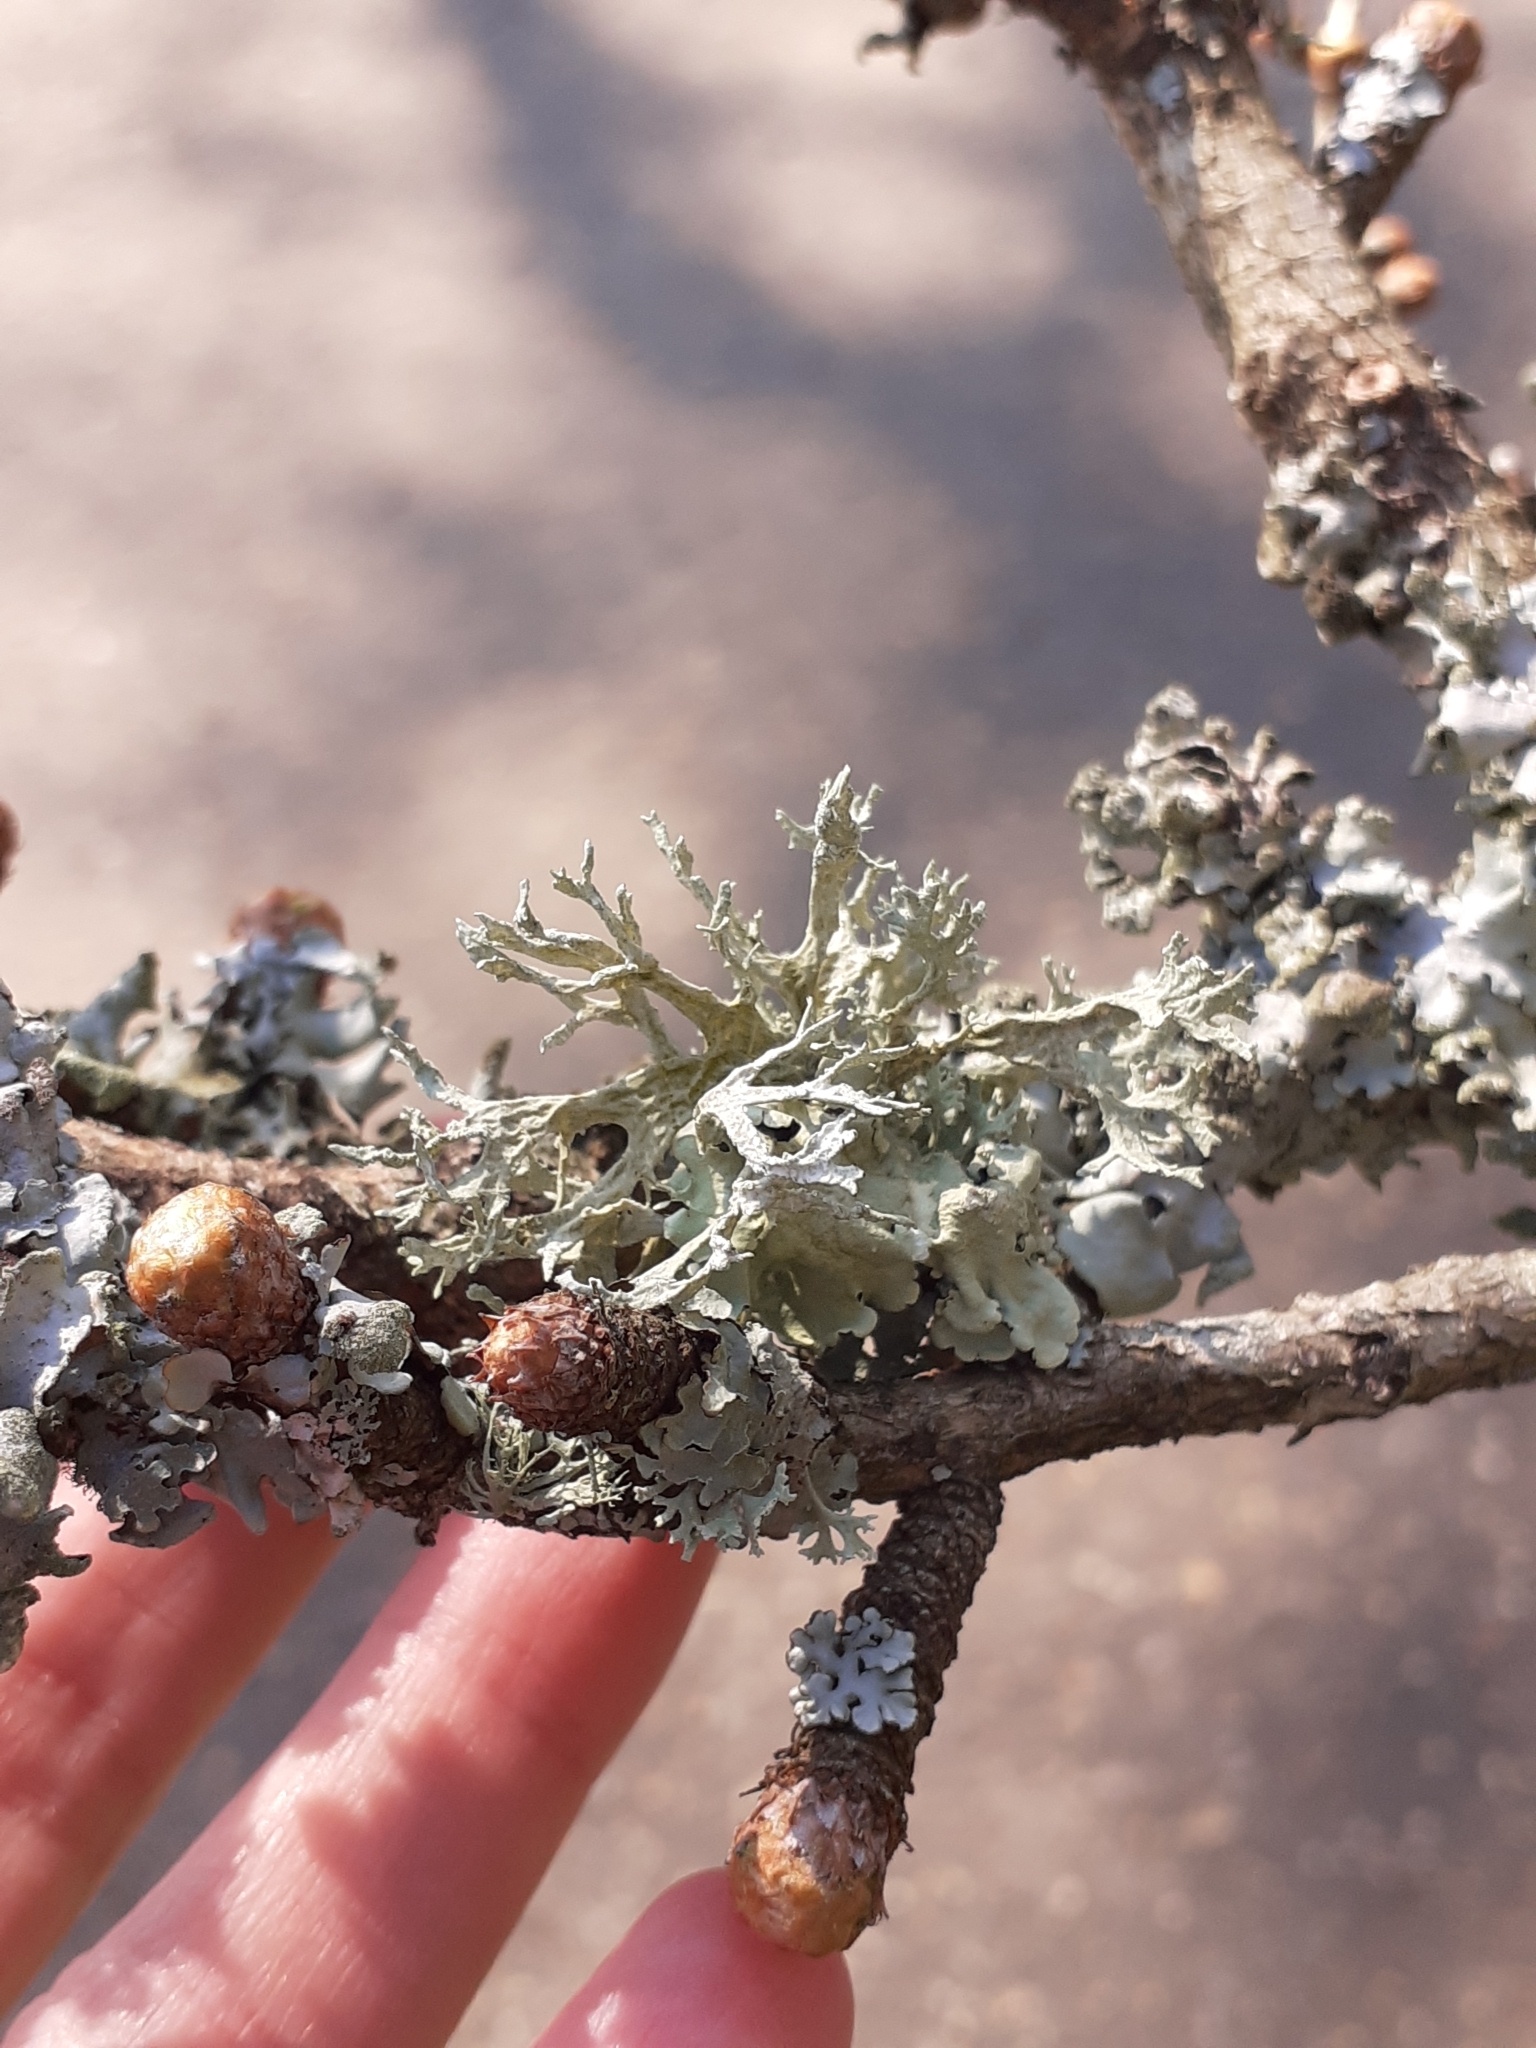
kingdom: Fungi
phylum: Ascomycota
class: Lecanoromycetes
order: Lecanorales
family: Parmeliaceae
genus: Evernia
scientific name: Evernia prunastri
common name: Oak moss
